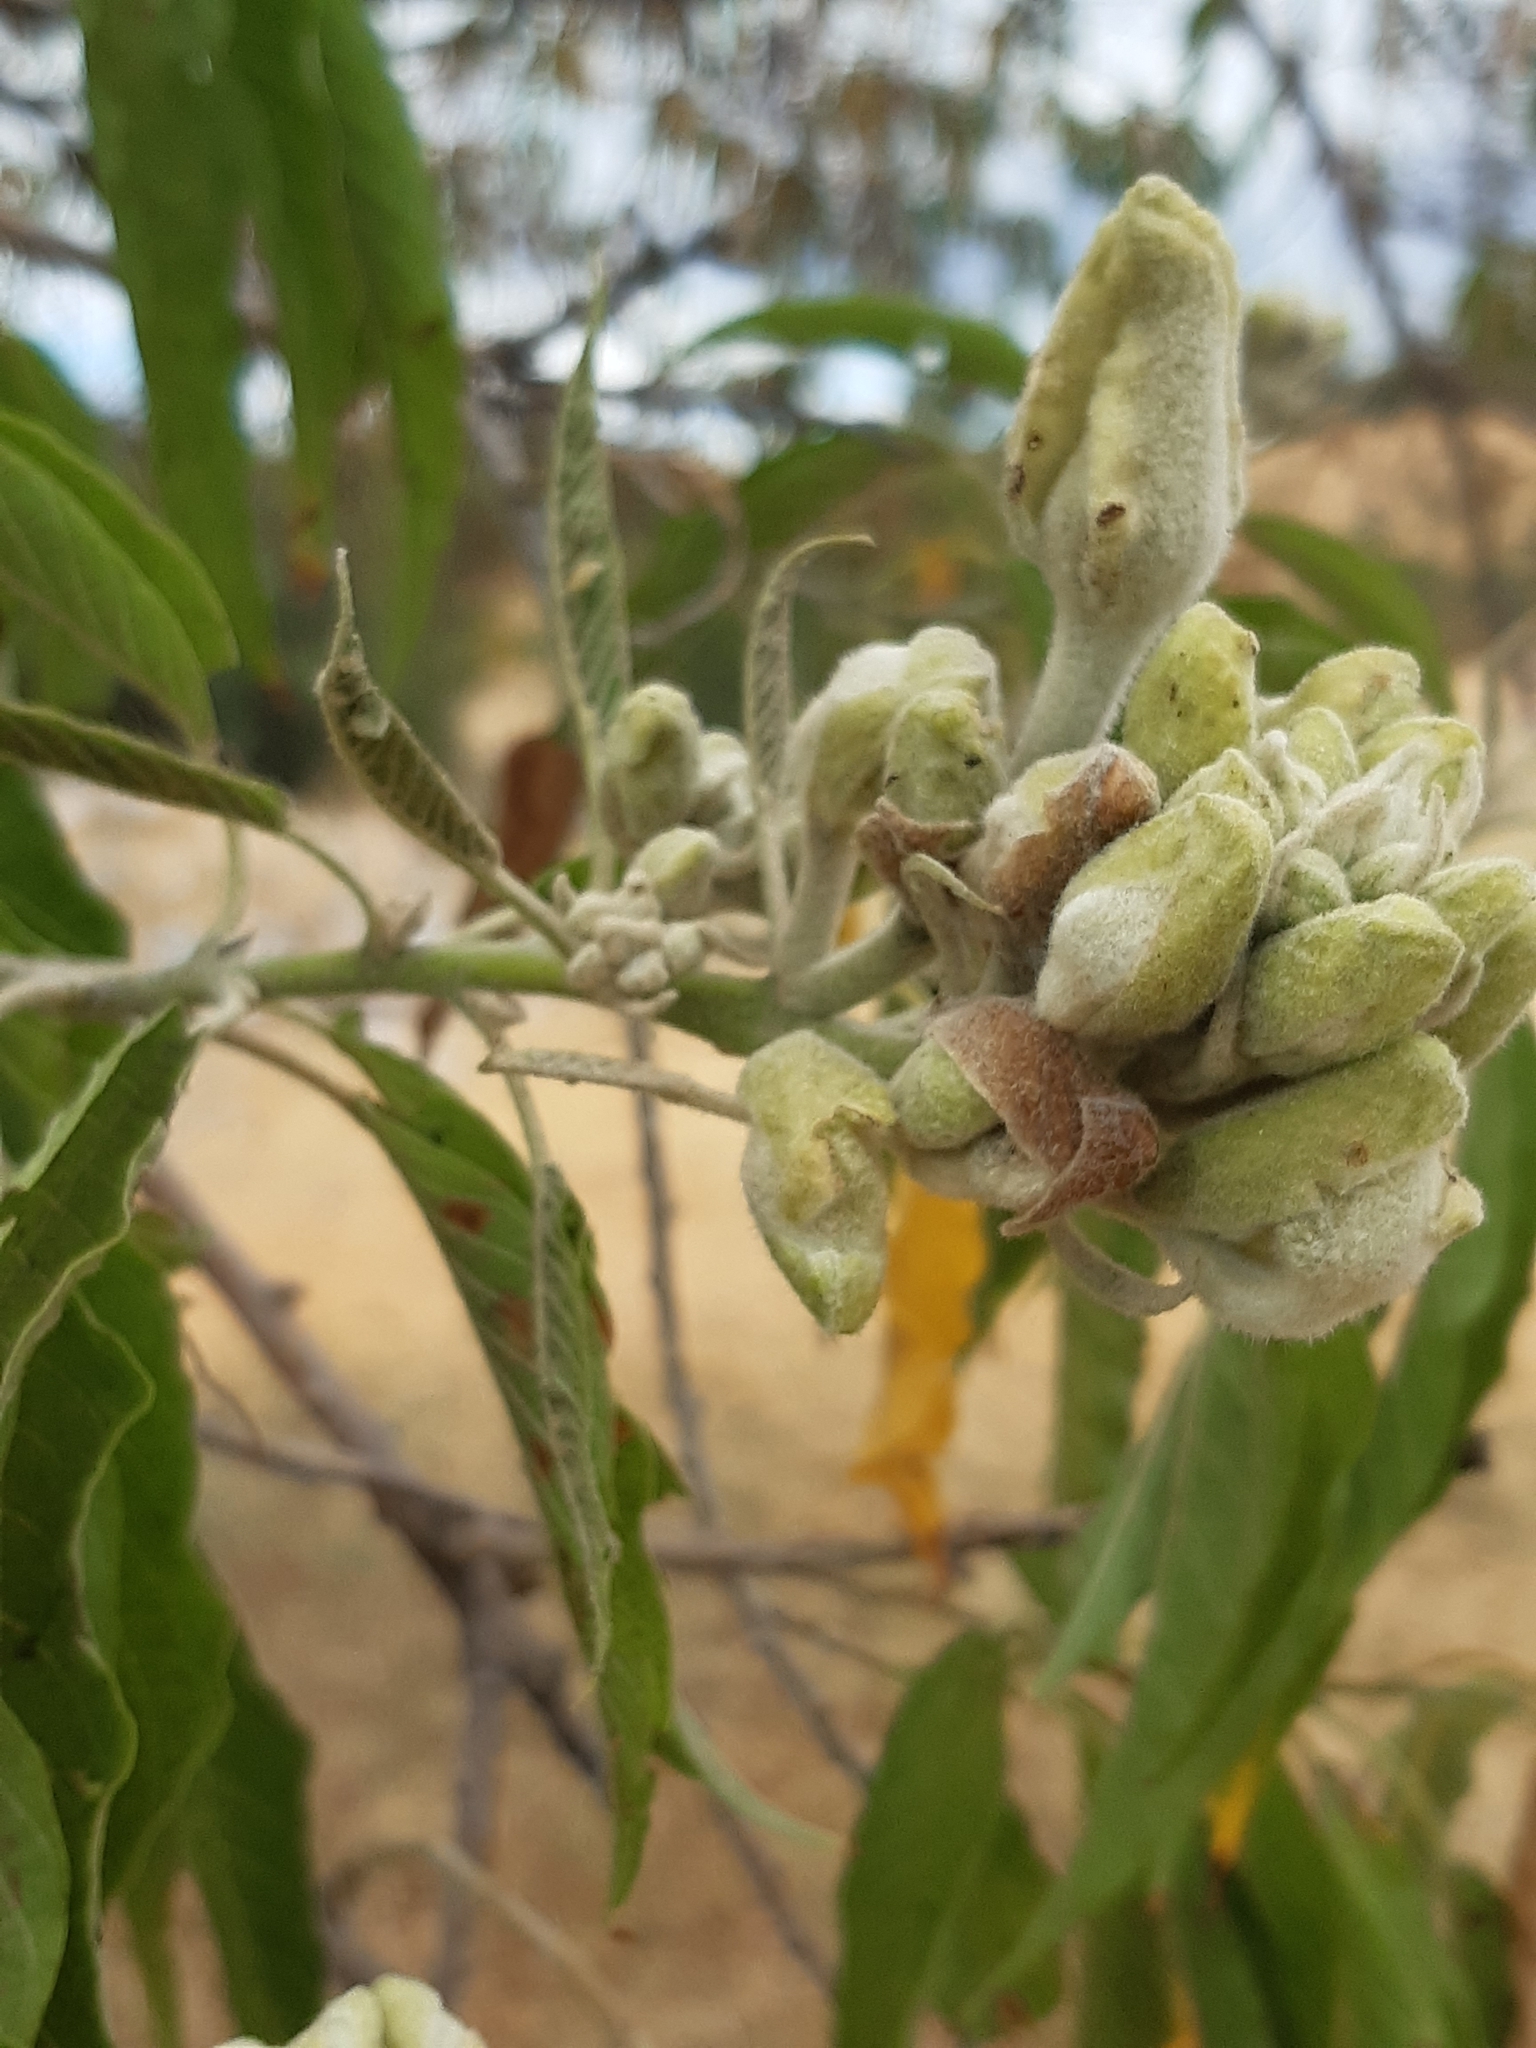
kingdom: Plantae
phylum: Tracheophyta
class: Magnoliopsida
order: Solanales
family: Convolvulaceae
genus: Ipomoea
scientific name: Ipomoea murucoides
